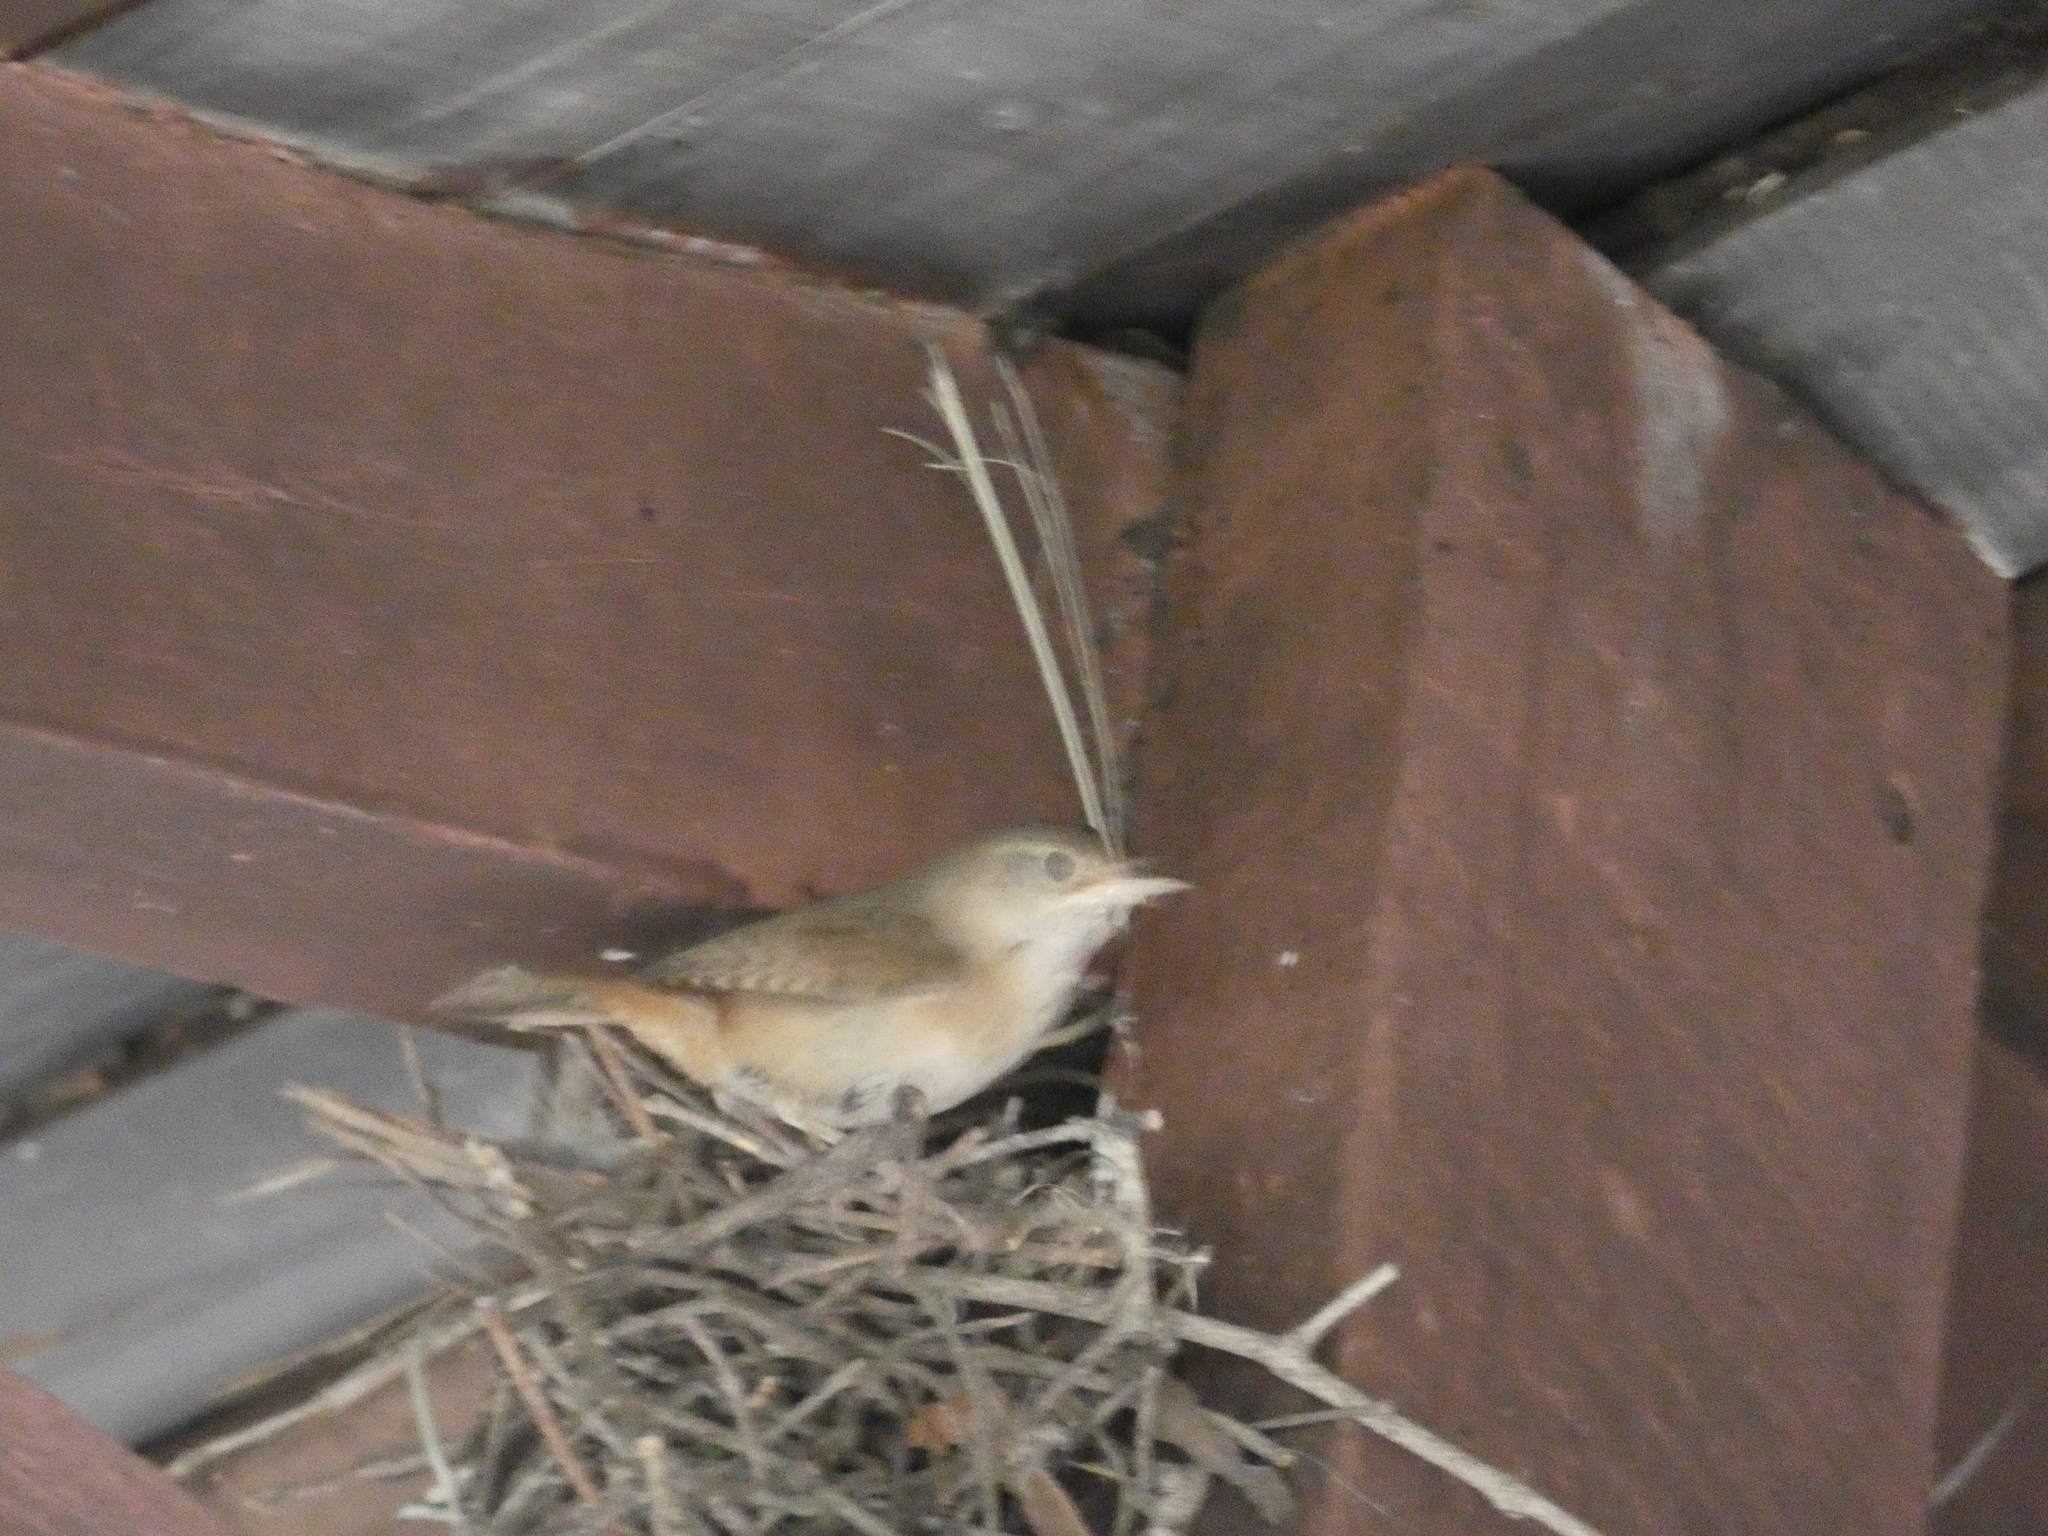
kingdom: Animalia
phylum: Chordata
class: Aves
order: Passeriformes
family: Troglodytidae
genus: Troglodytes
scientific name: Troglodytes aedon
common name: House wren
